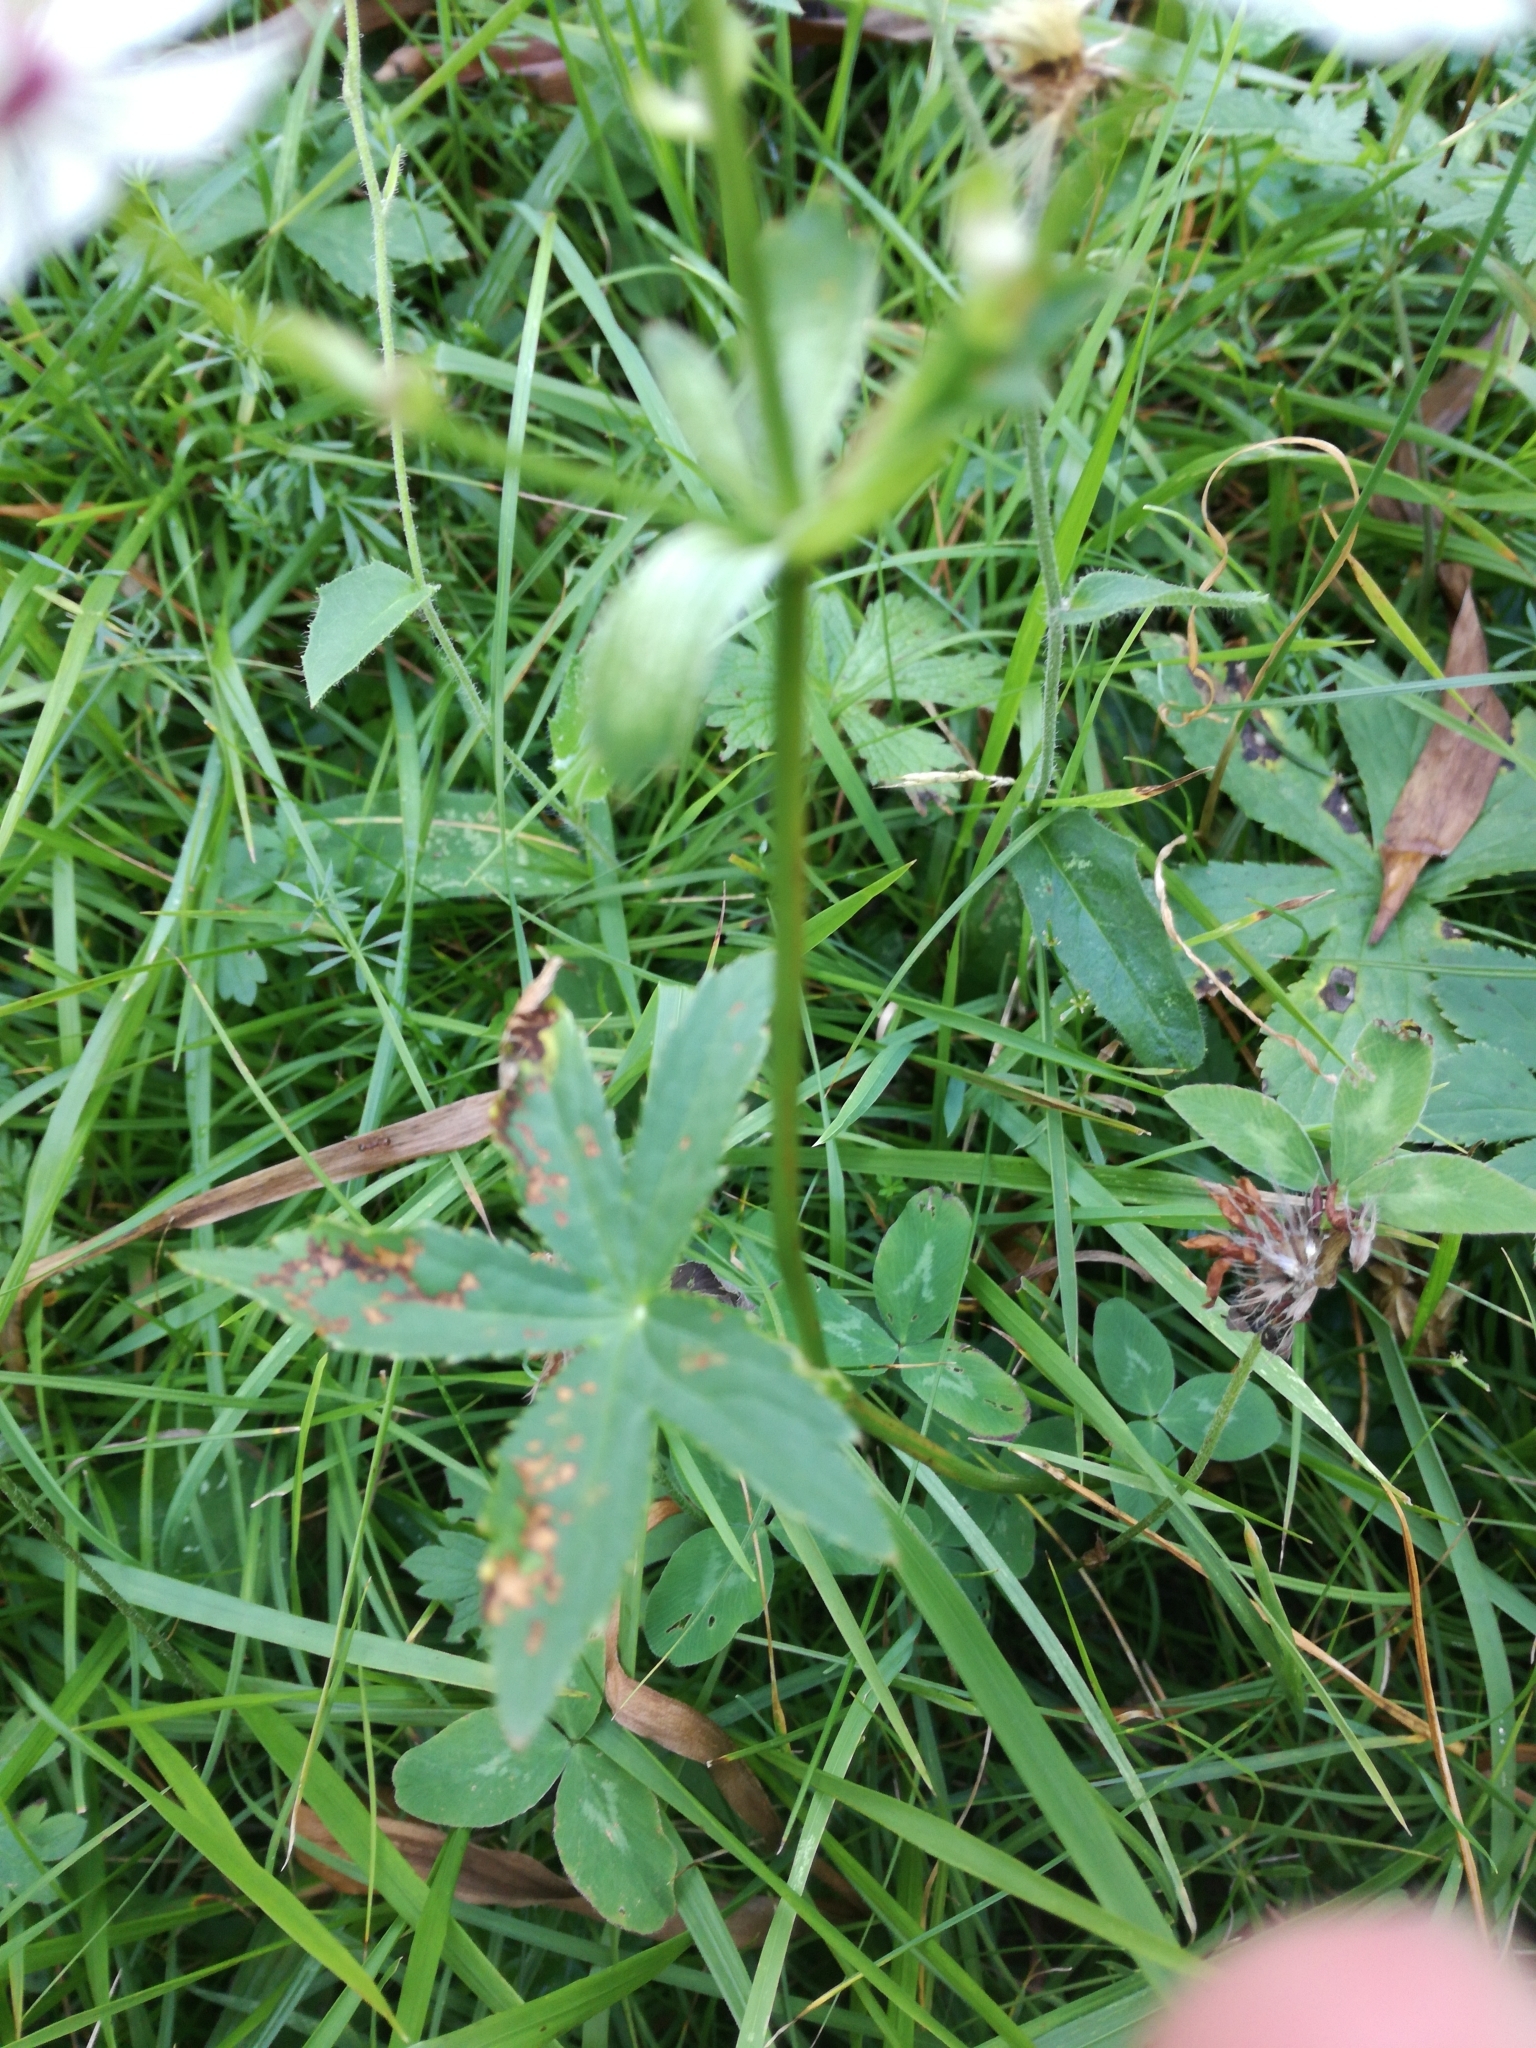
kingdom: Plantae
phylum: Tracheophyta
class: Magnoliopsida
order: Apiales
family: Apiaceae
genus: Astrantia
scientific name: Astrantia major
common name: Greater masterwort
